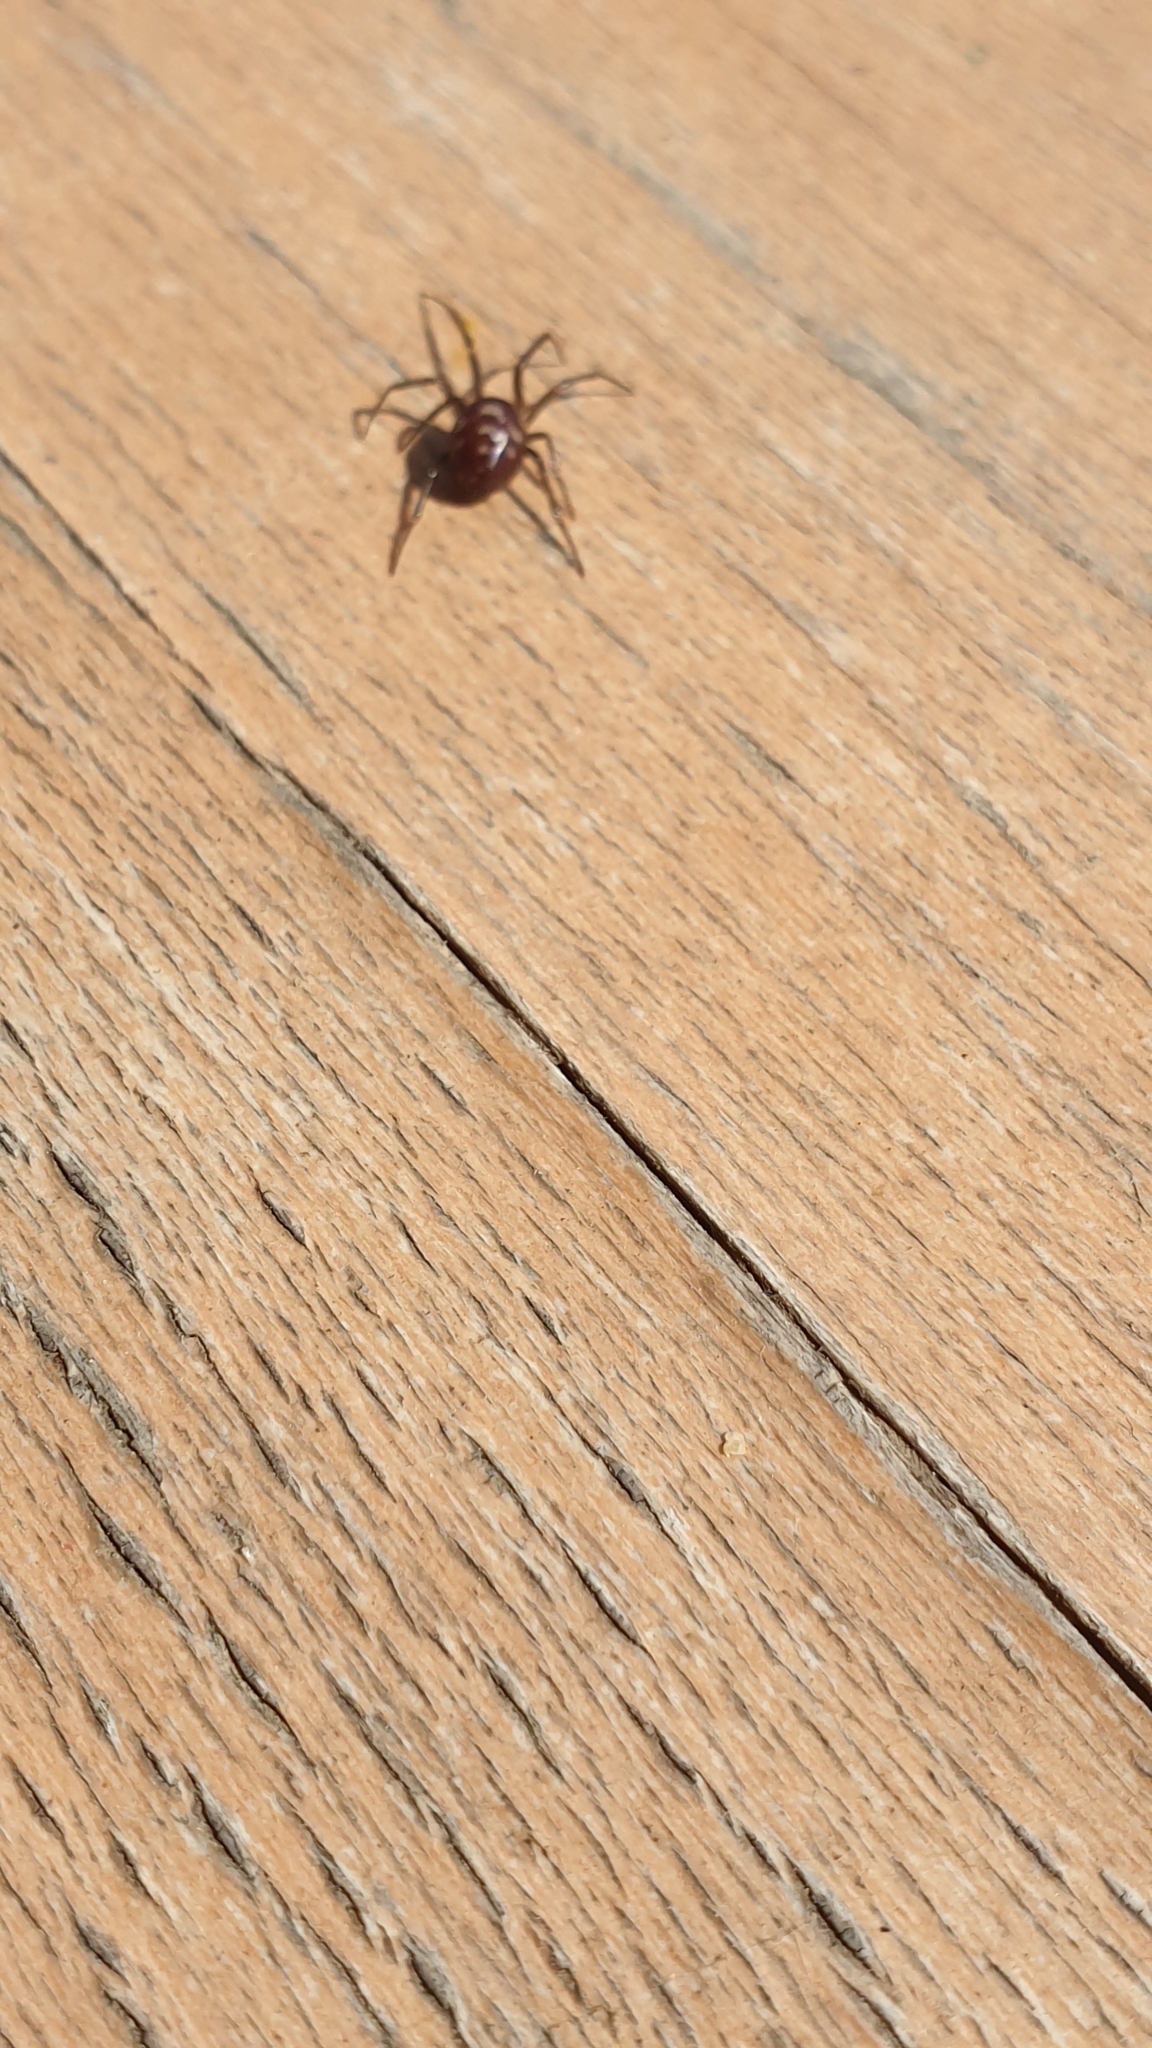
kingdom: Animalia
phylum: Arthropoda
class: Arachnida
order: Araneae
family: Theridiidae
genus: Steatoda
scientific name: Steatoda grossa
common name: False black widow
